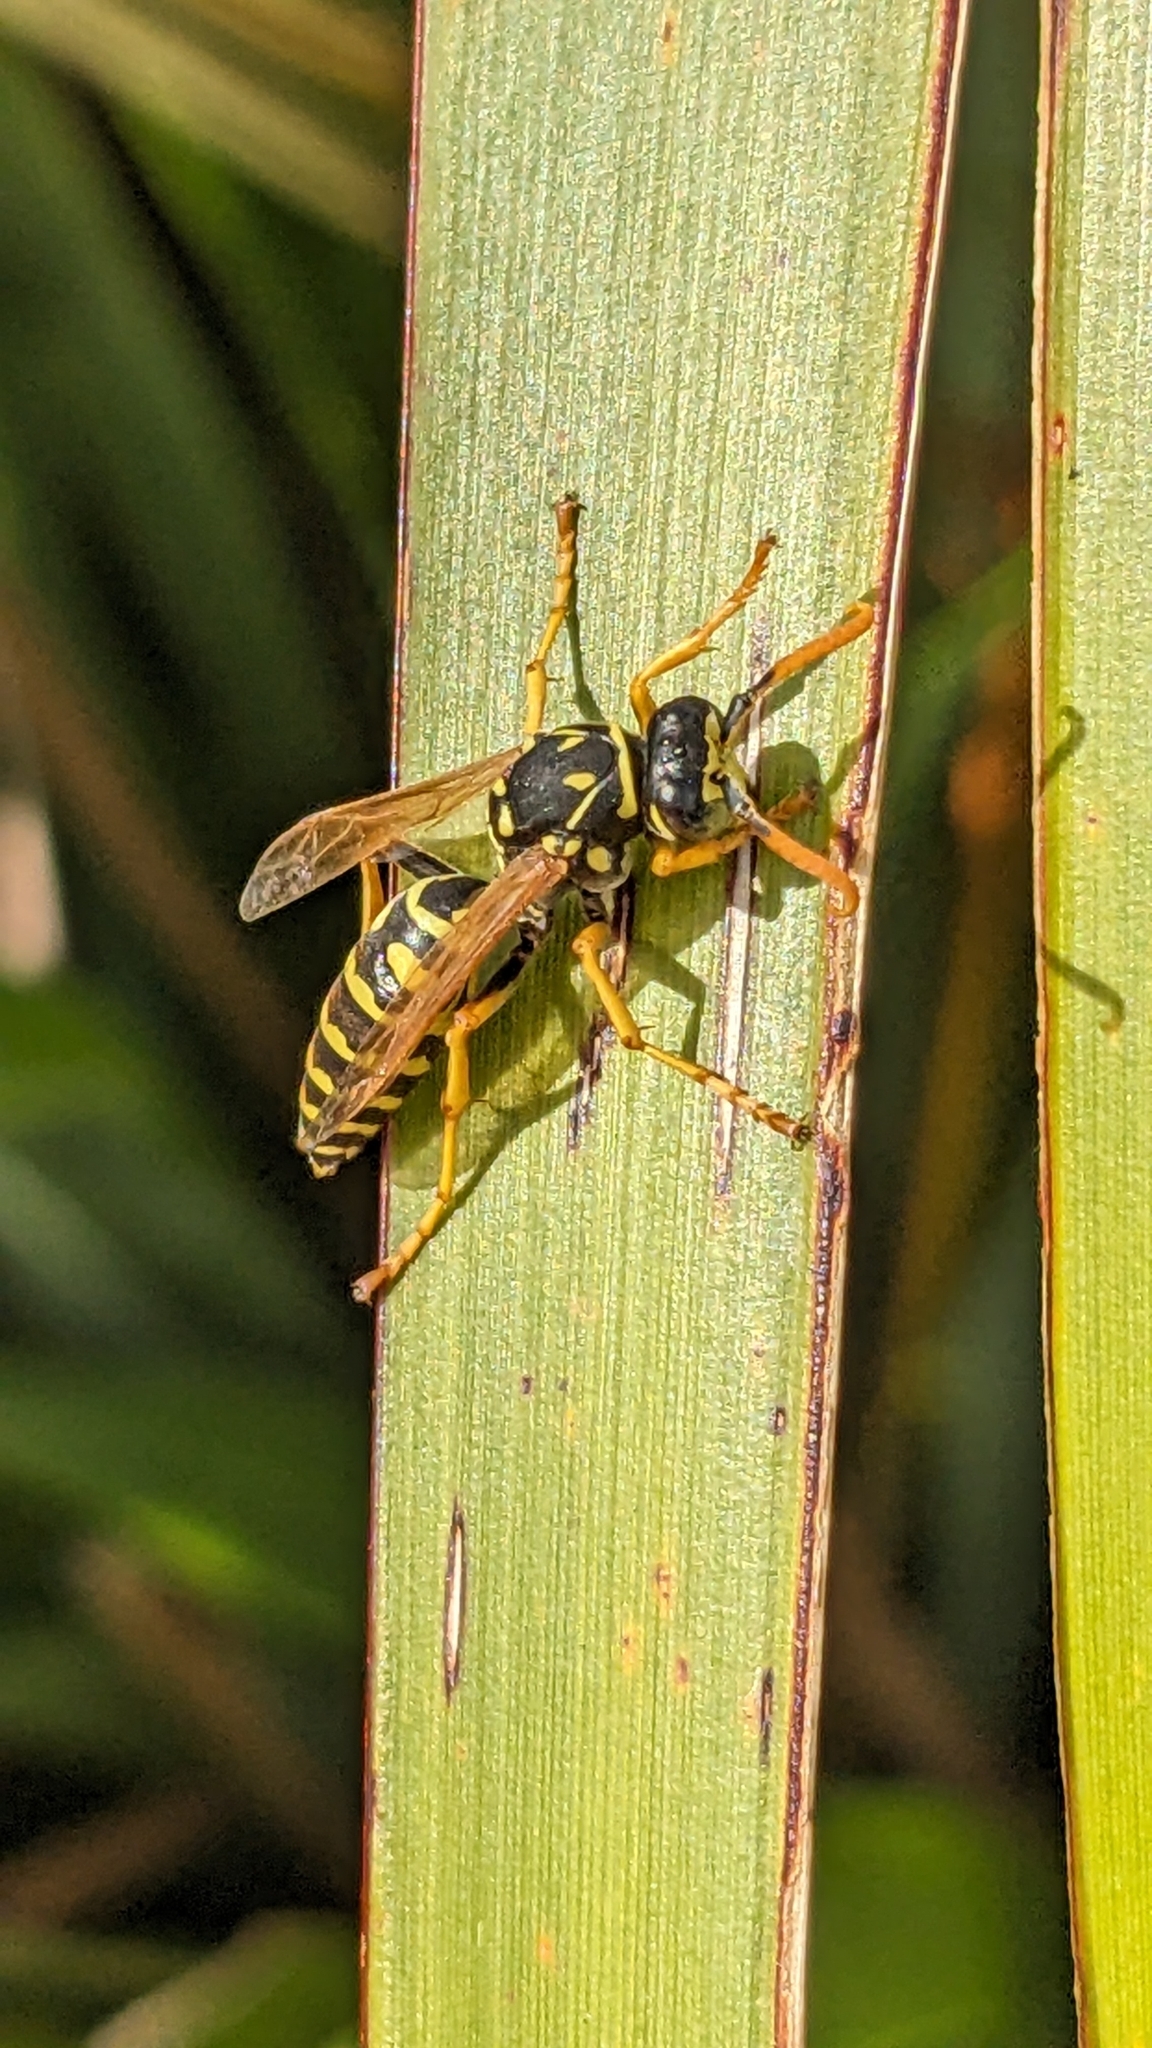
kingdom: Animalia
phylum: Arthropoda
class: Insecta
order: Hymenoptera
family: Eumenidae
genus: Polistes
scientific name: Polistes dominula
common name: Paper wasp
